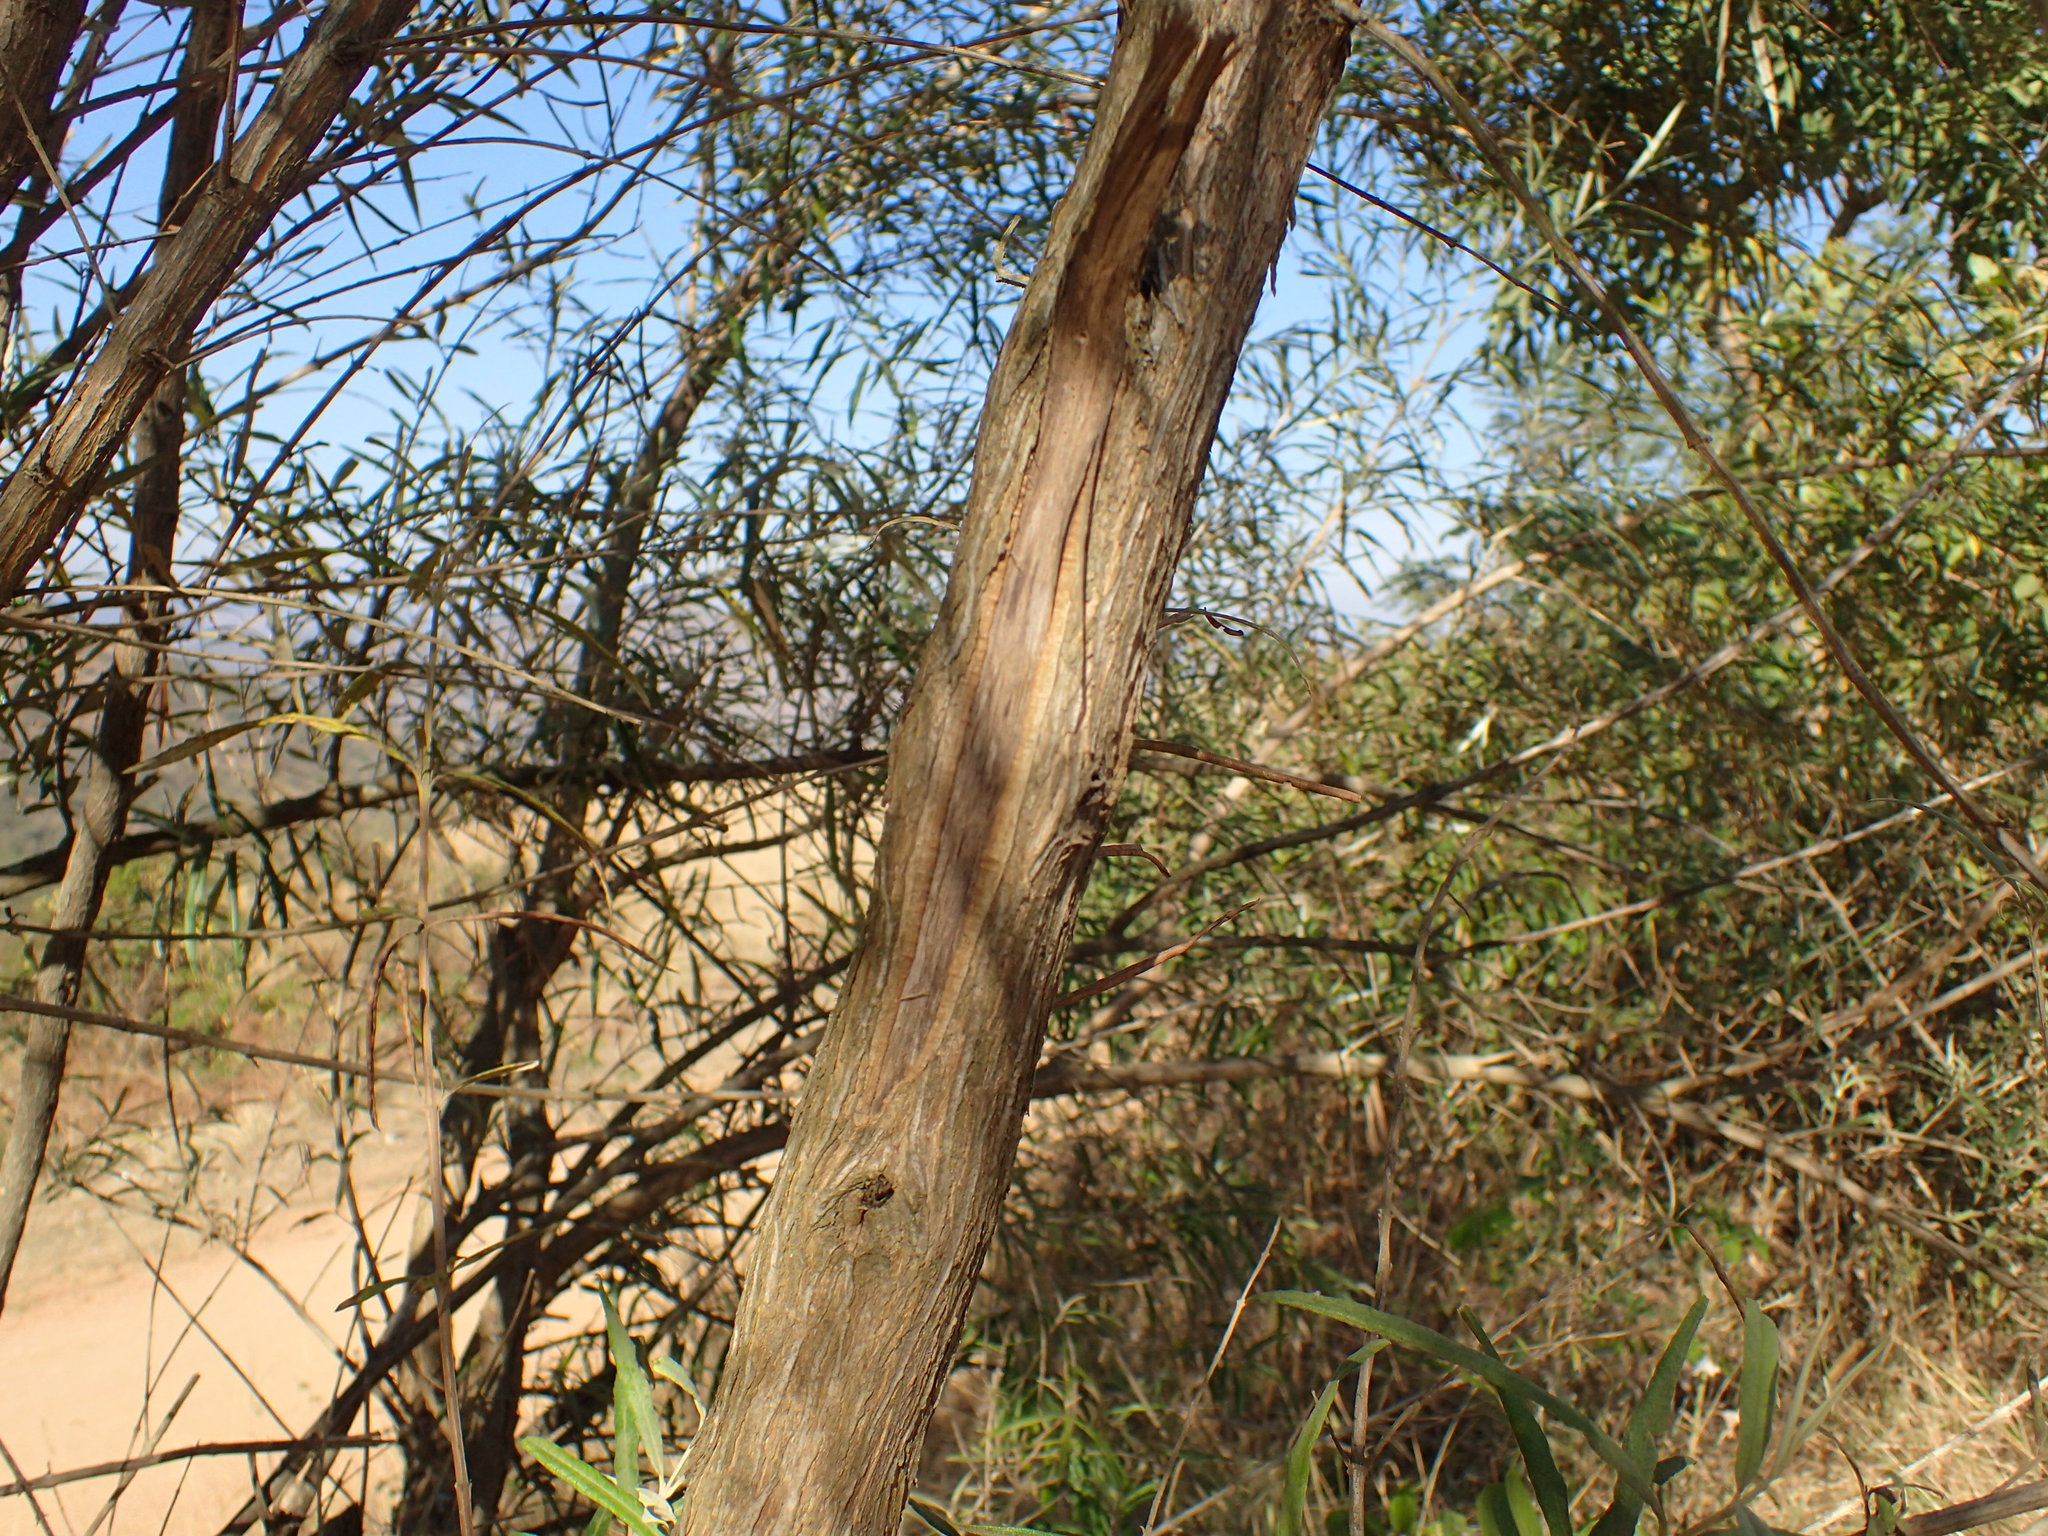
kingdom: Plantae
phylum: Tracheophyta
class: Magnoliopsida
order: Lamiales
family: Scrophulariaceae
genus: Buddleja
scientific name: Buddleja saligna
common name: False olive
